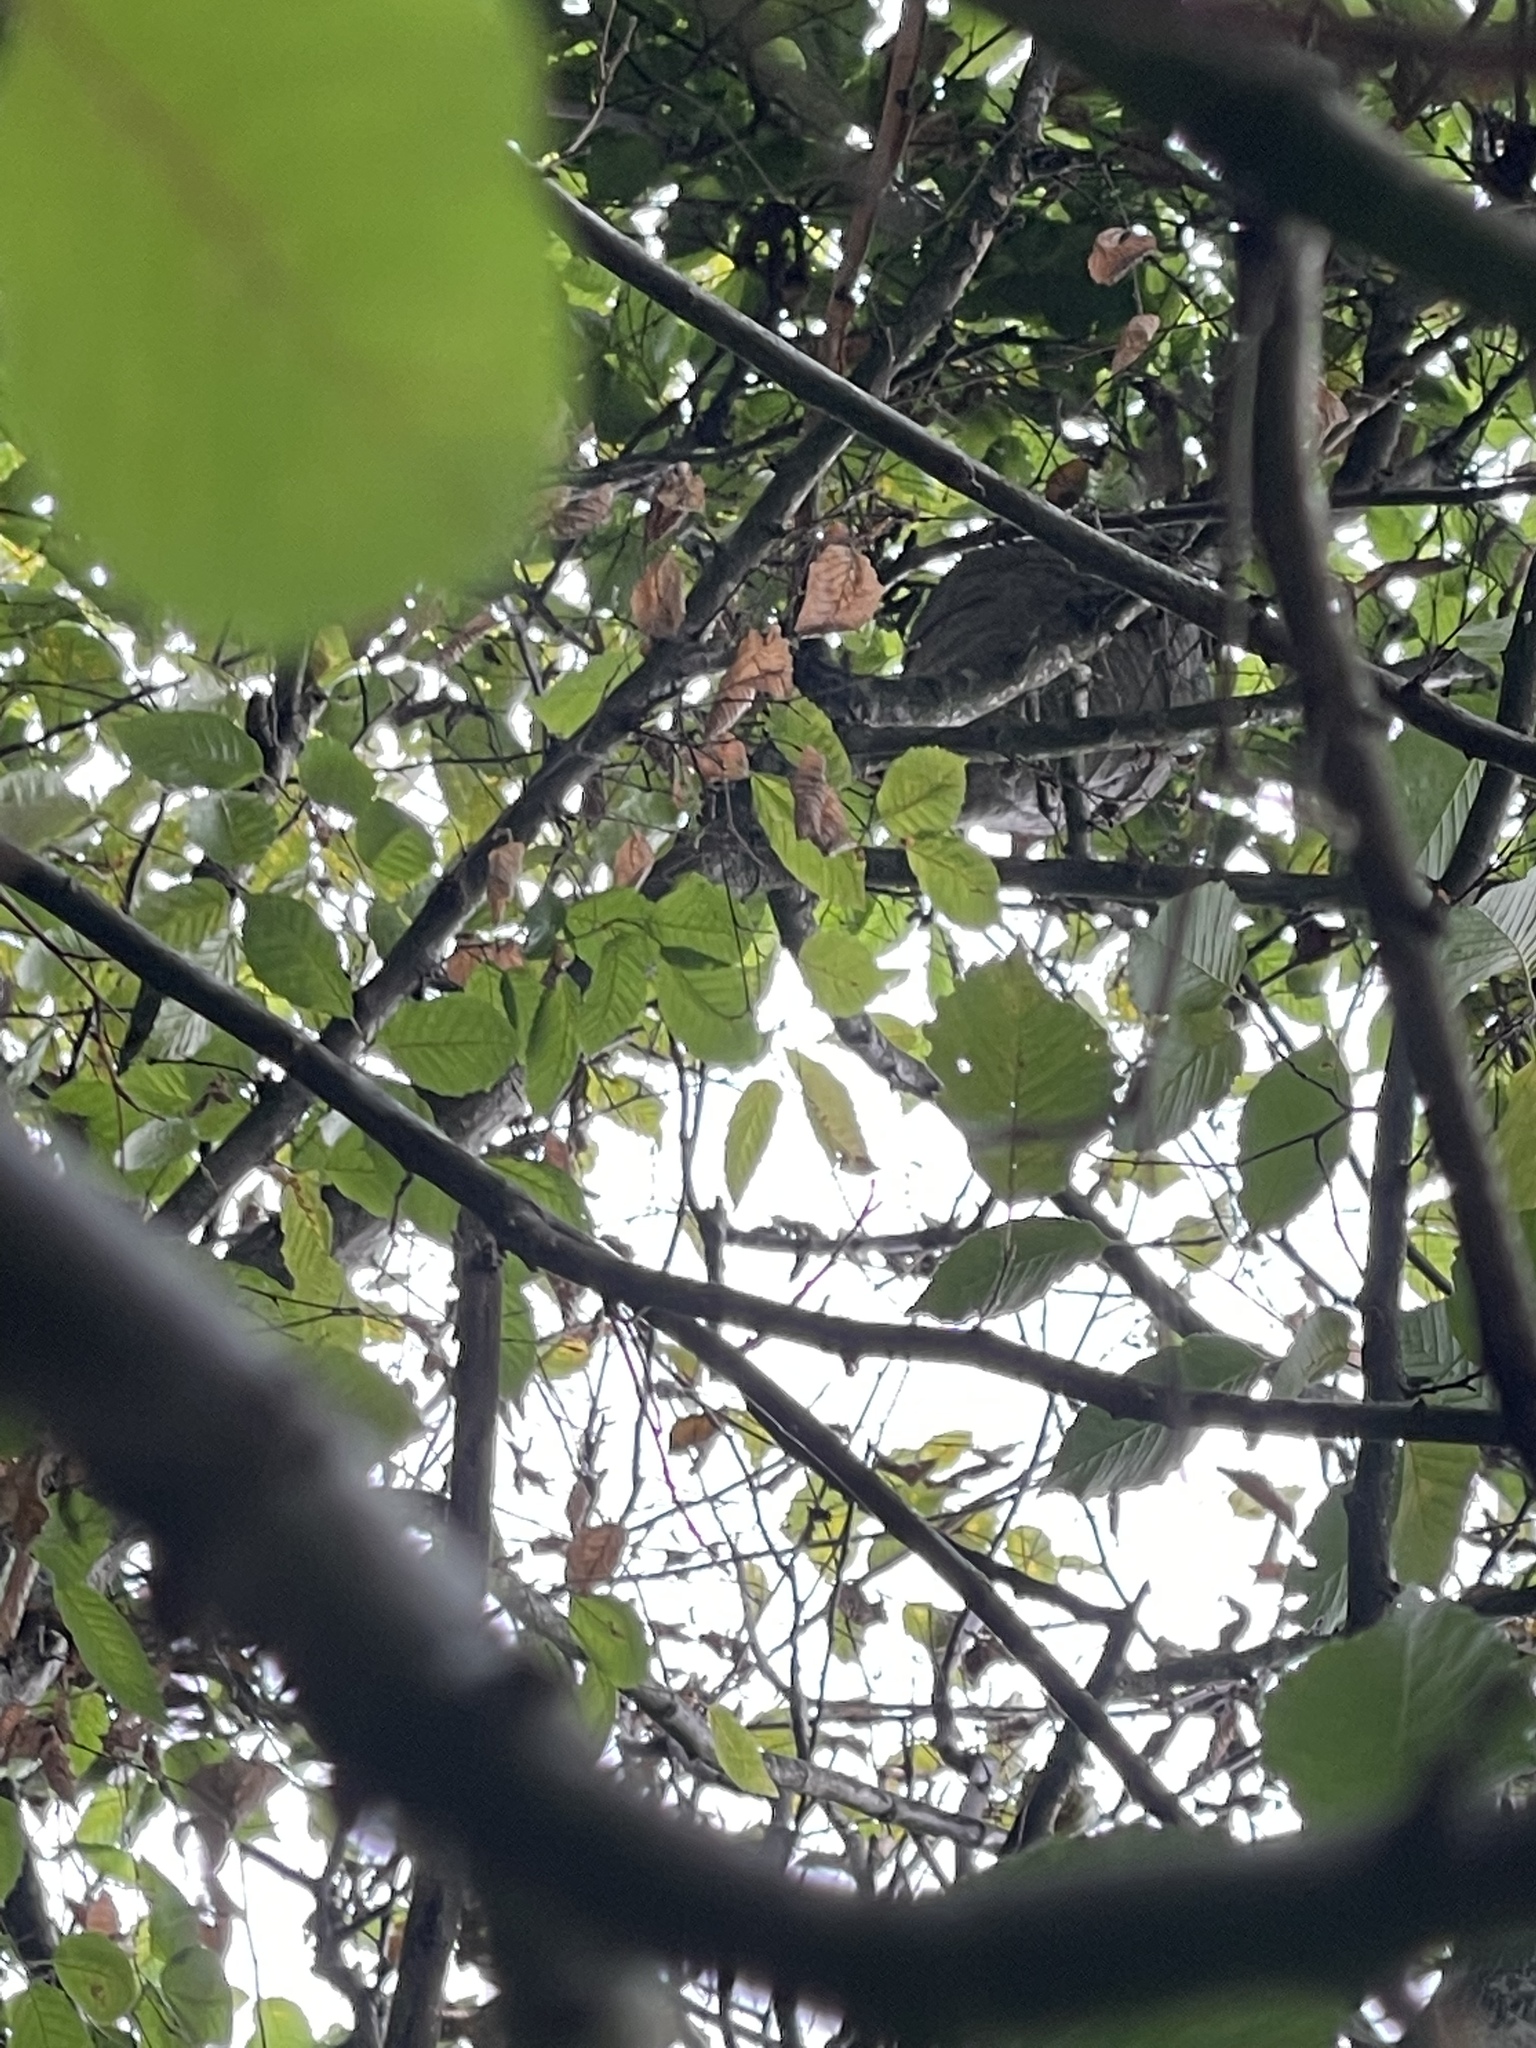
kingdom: Animalia
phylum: Arthropoda
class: Insecta
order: Hymenoptera
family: Vespidae
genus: Dolichovespula
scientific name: Dolichovespula media
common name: Median wasp
